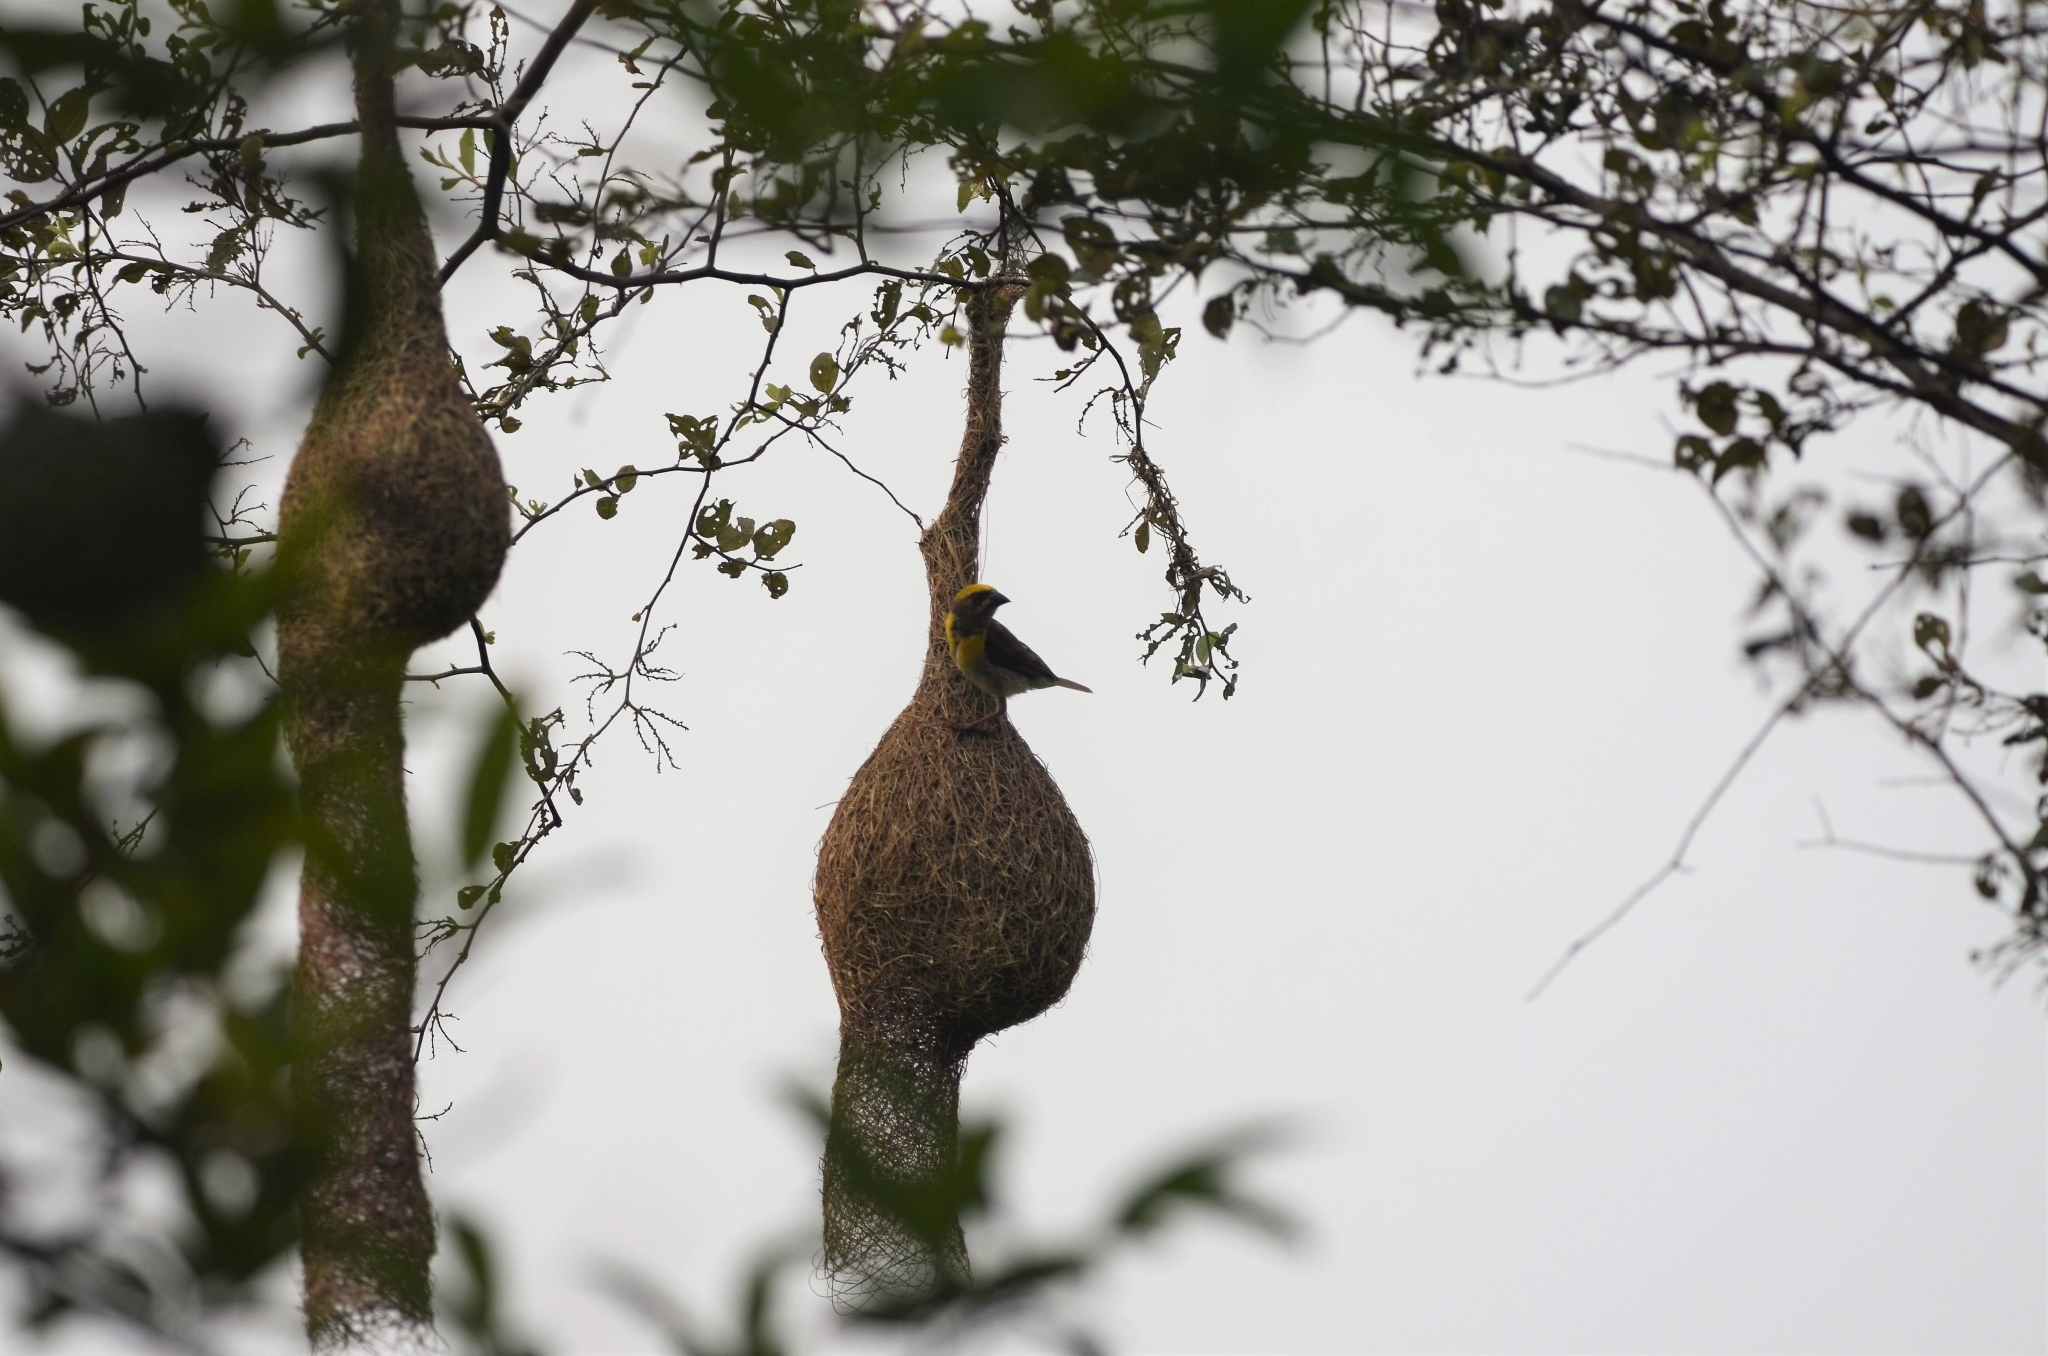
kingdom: Animalia
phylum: Chordata
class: Aves
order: Passeriformes
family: Ploceidae
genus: Ploceus
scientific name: Ploceus philippinus
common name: Baya weaver
